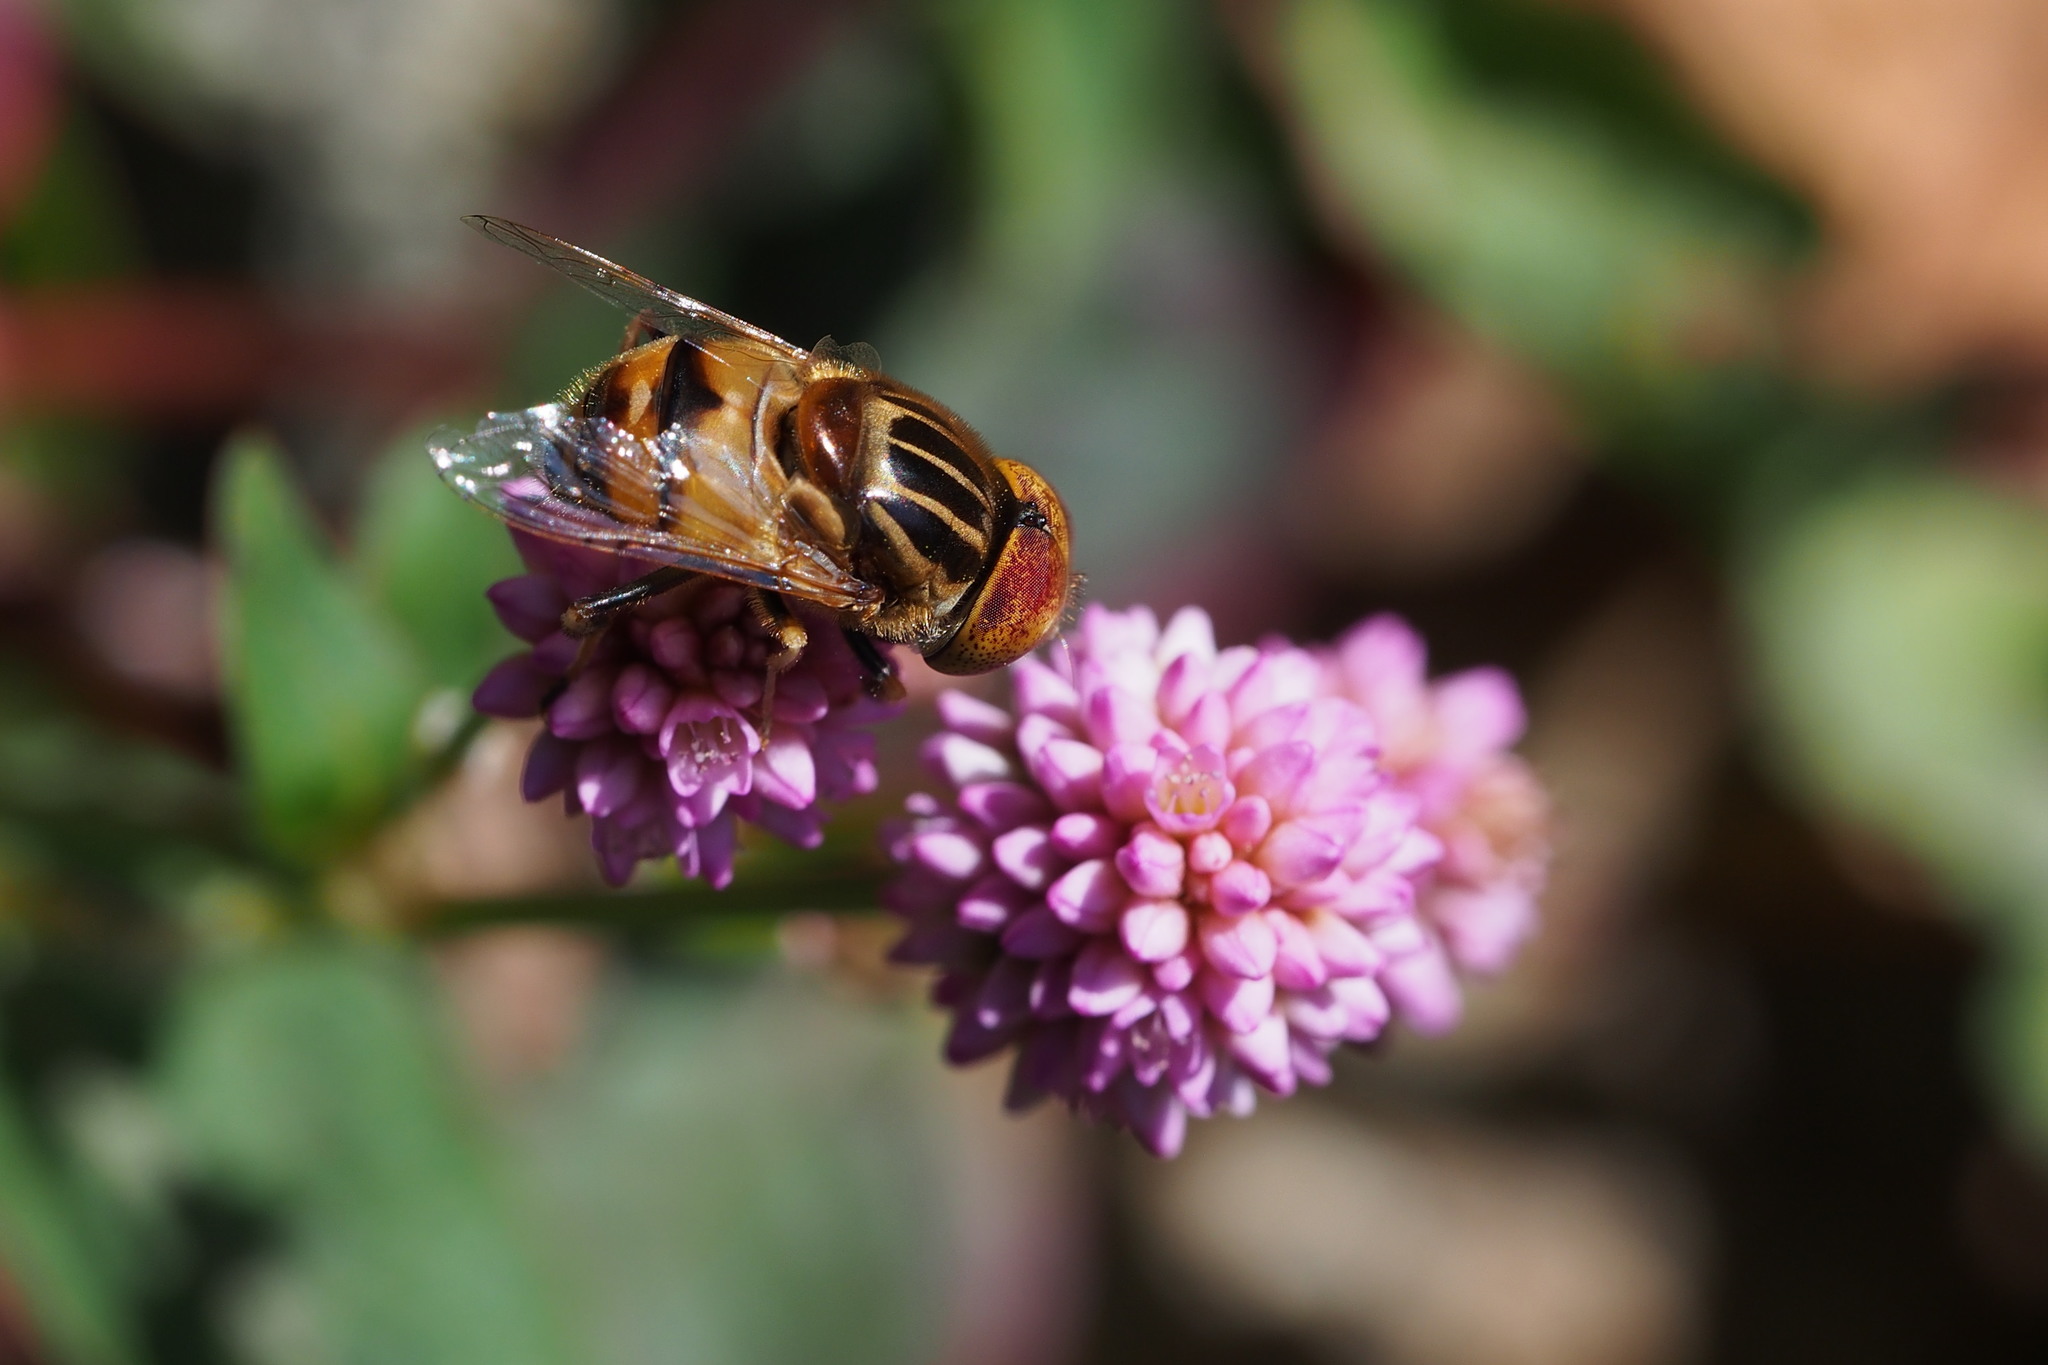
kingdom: Animalia
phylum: Arthropoda
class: Insecta
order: Diptera
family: Syrphidae
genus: Eristalinus
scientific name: Eristalinus quinquestriatus
